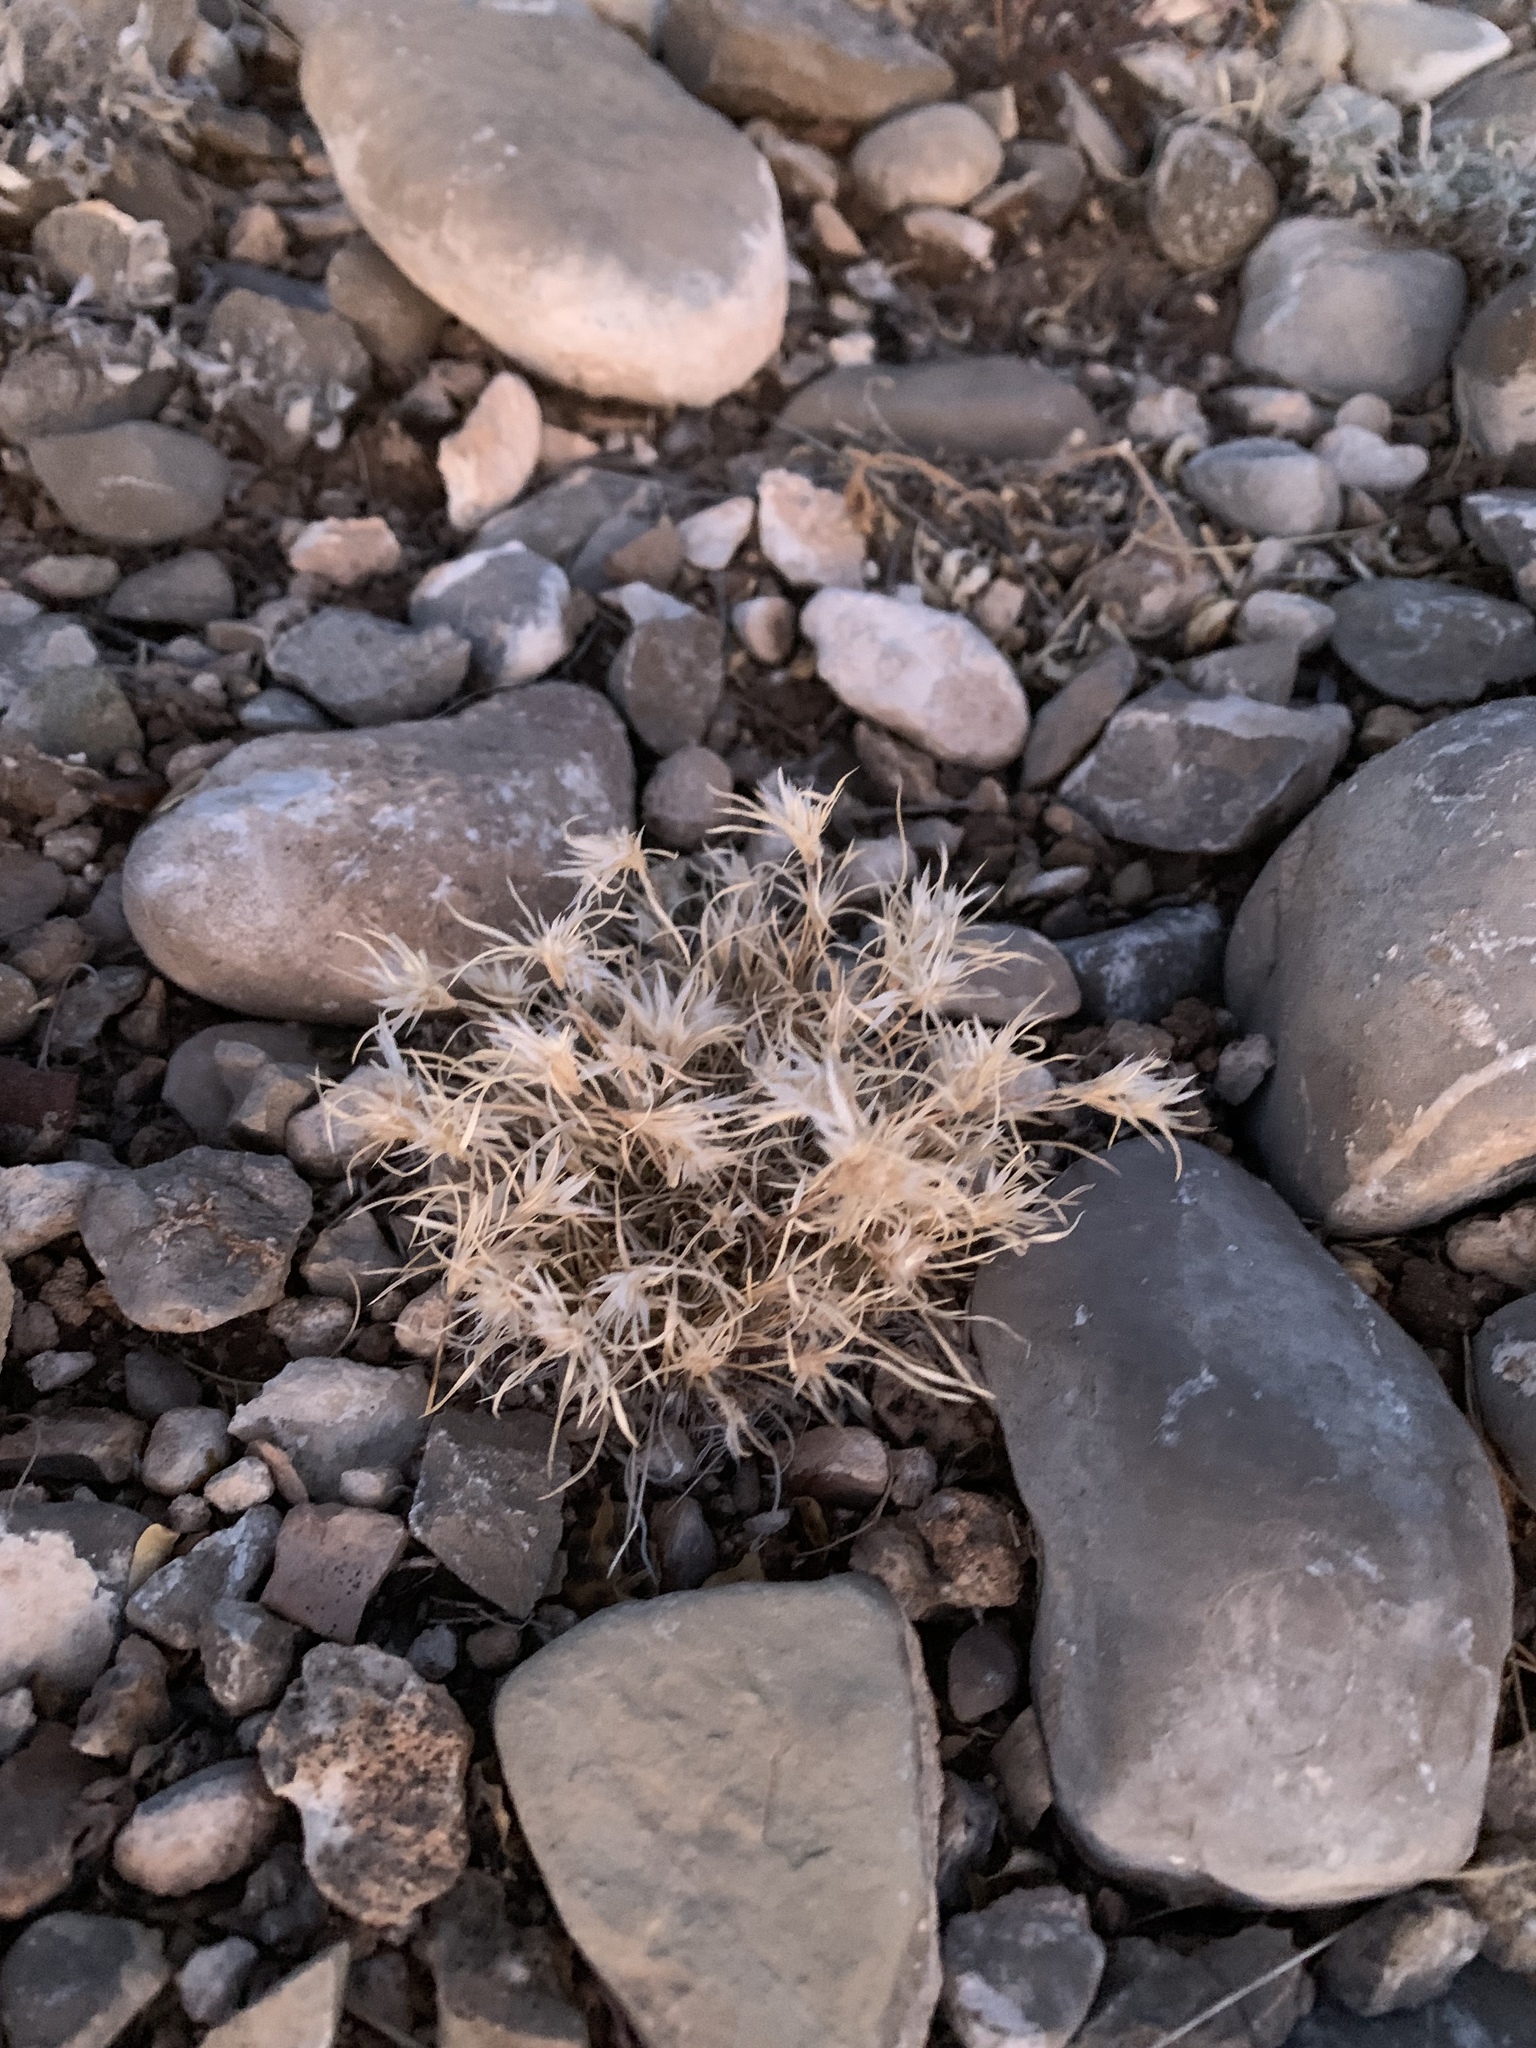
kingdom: Plantae
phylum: Tracheophyta
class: Liliopsida
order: Poales
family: Poaceae
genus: Dasyochloa
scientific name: Dasyochloa pulchella
